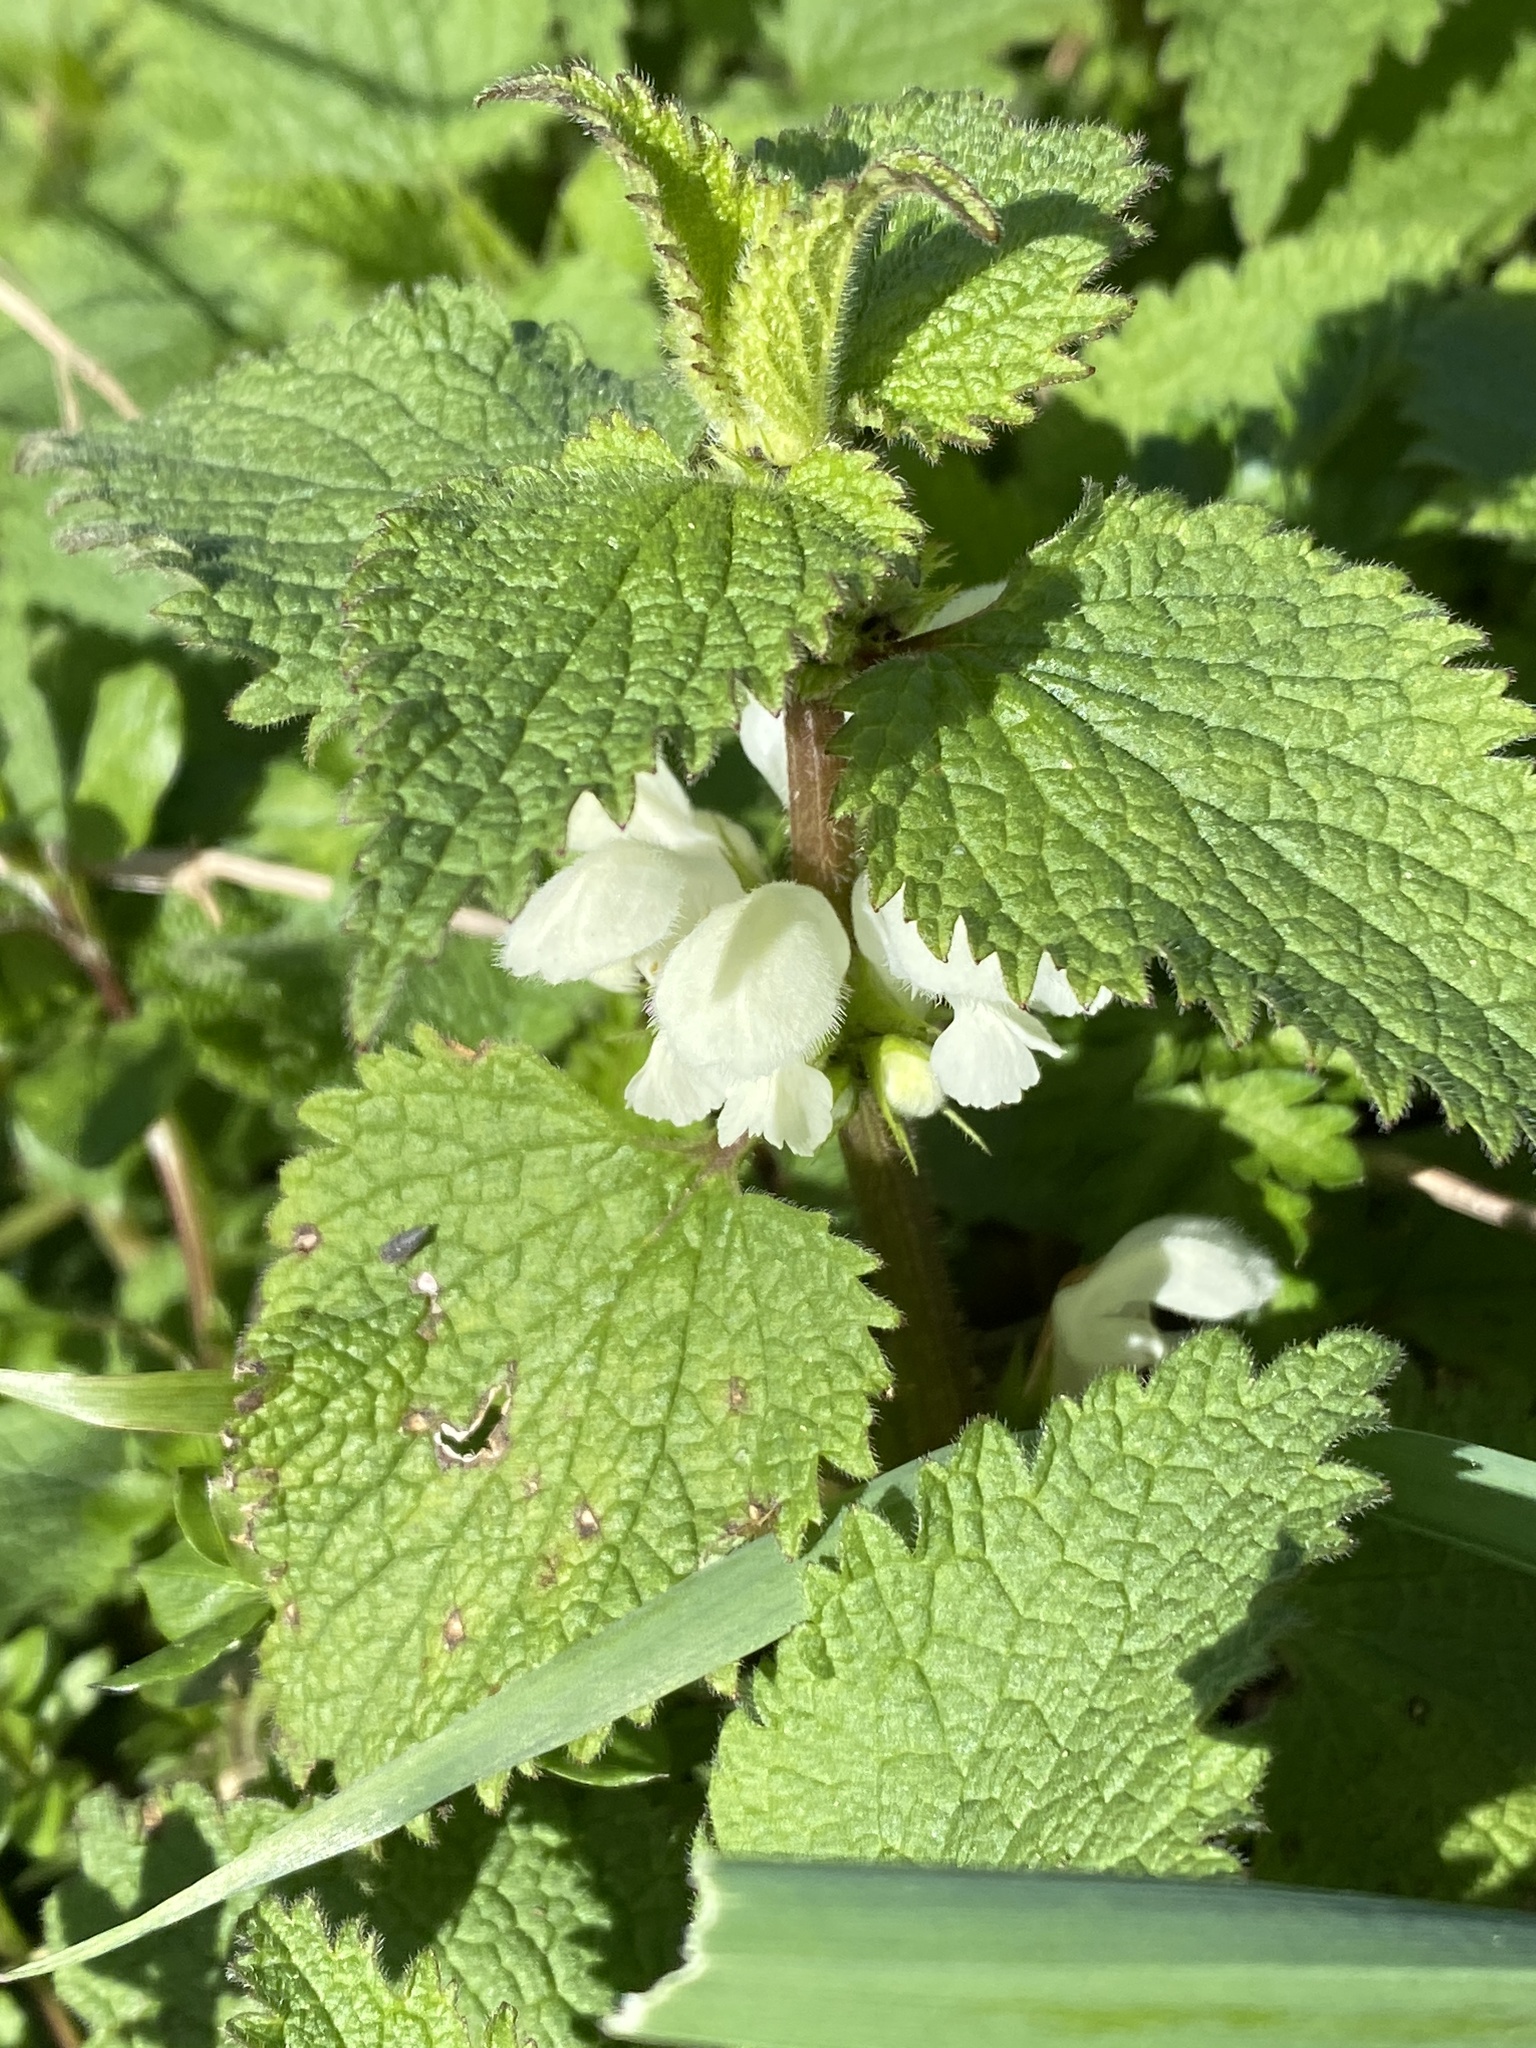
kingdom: Plantae
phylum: Tracheophyta
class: Magnoliopsida
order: Lamiales
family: Lamiaceae
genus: Lamium
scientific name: Lamium album
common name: White dead-nettle
